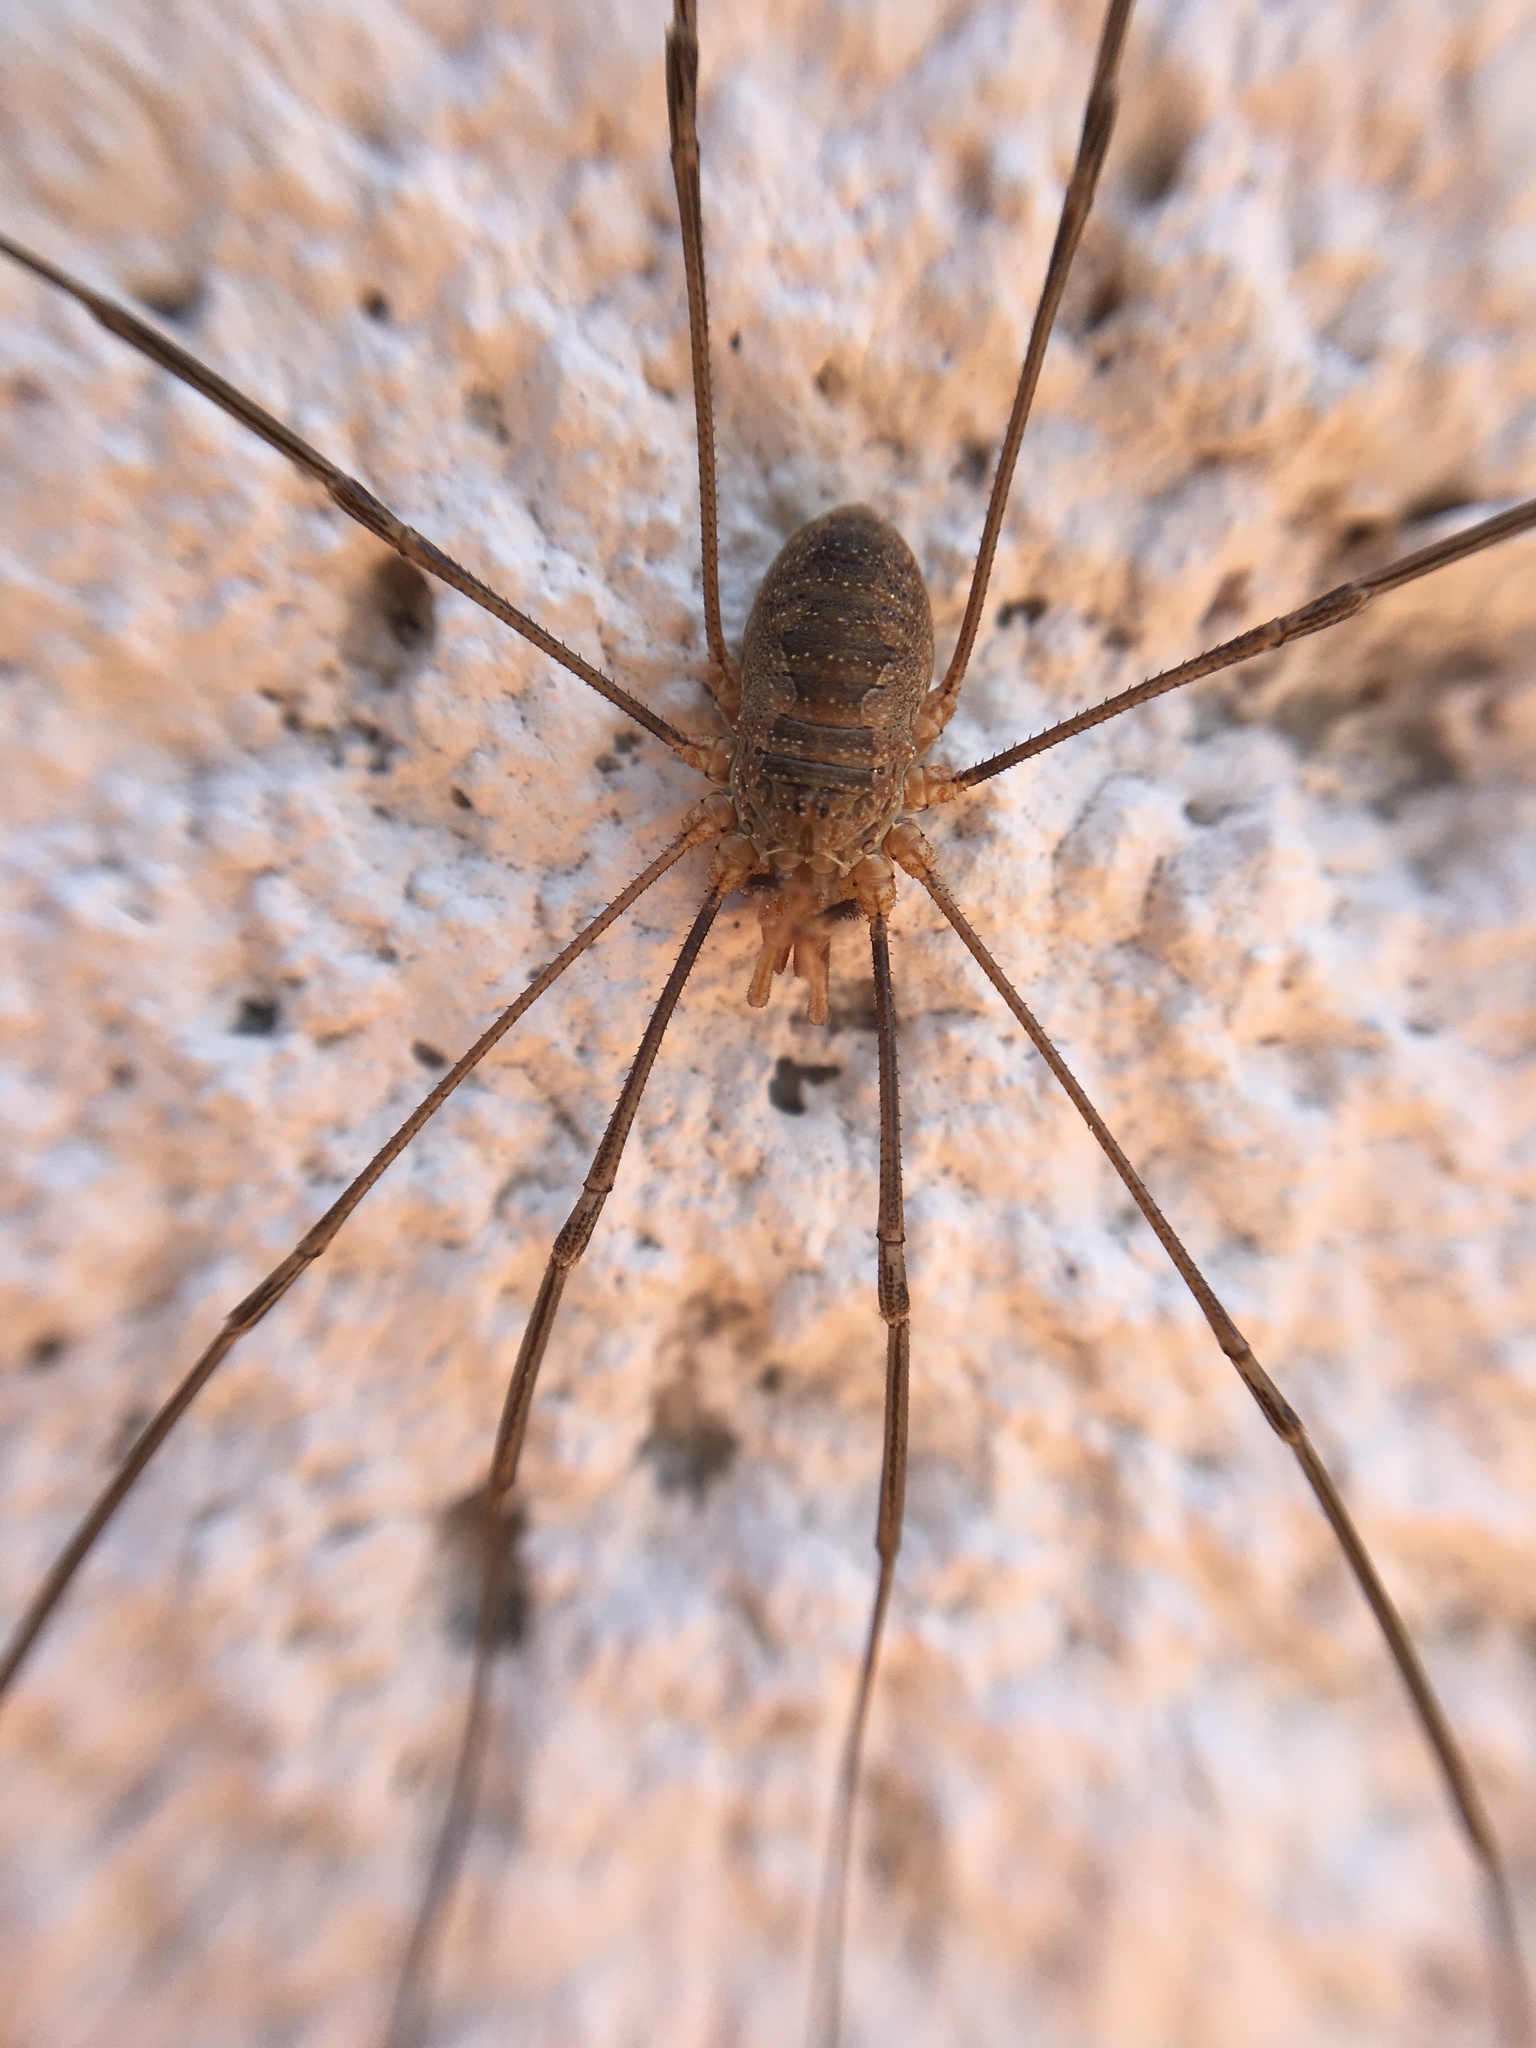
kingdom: Animalia
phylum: Arthropoda
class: Arachnida
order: Opiliones
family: Phalangiidae
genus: Phalangium
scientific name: Phalangium opilio
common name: Daddy longleg
